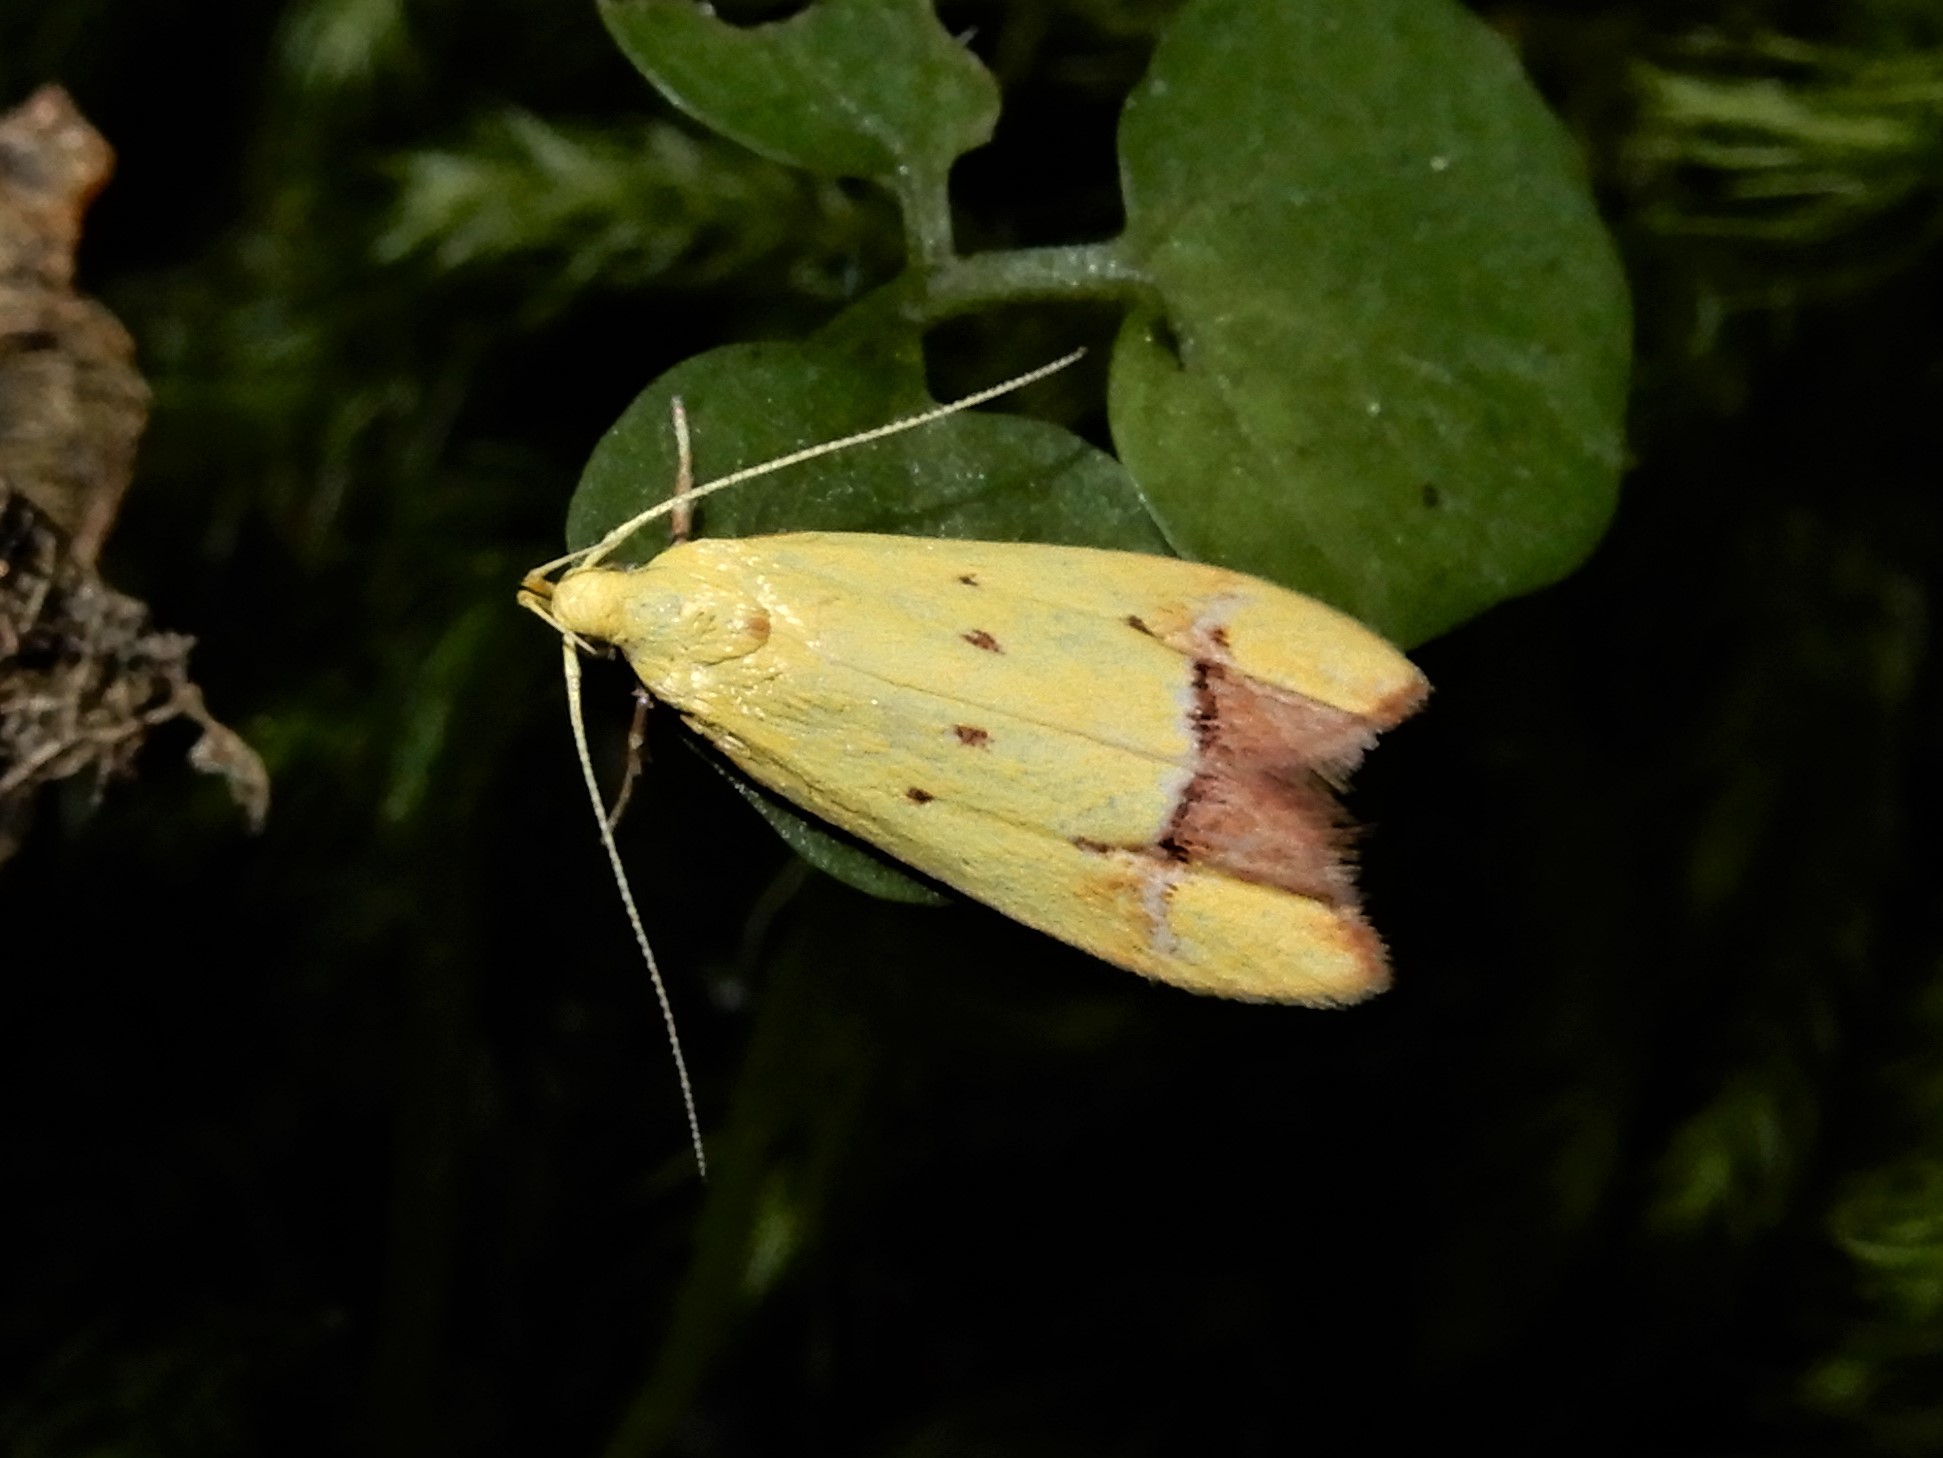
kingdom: Animalia
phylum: Arthropoda
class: Insecta
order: Lepidoptera
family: Oecophoridae
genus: Gymnobathra
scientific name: Gymnobathra flavidella
